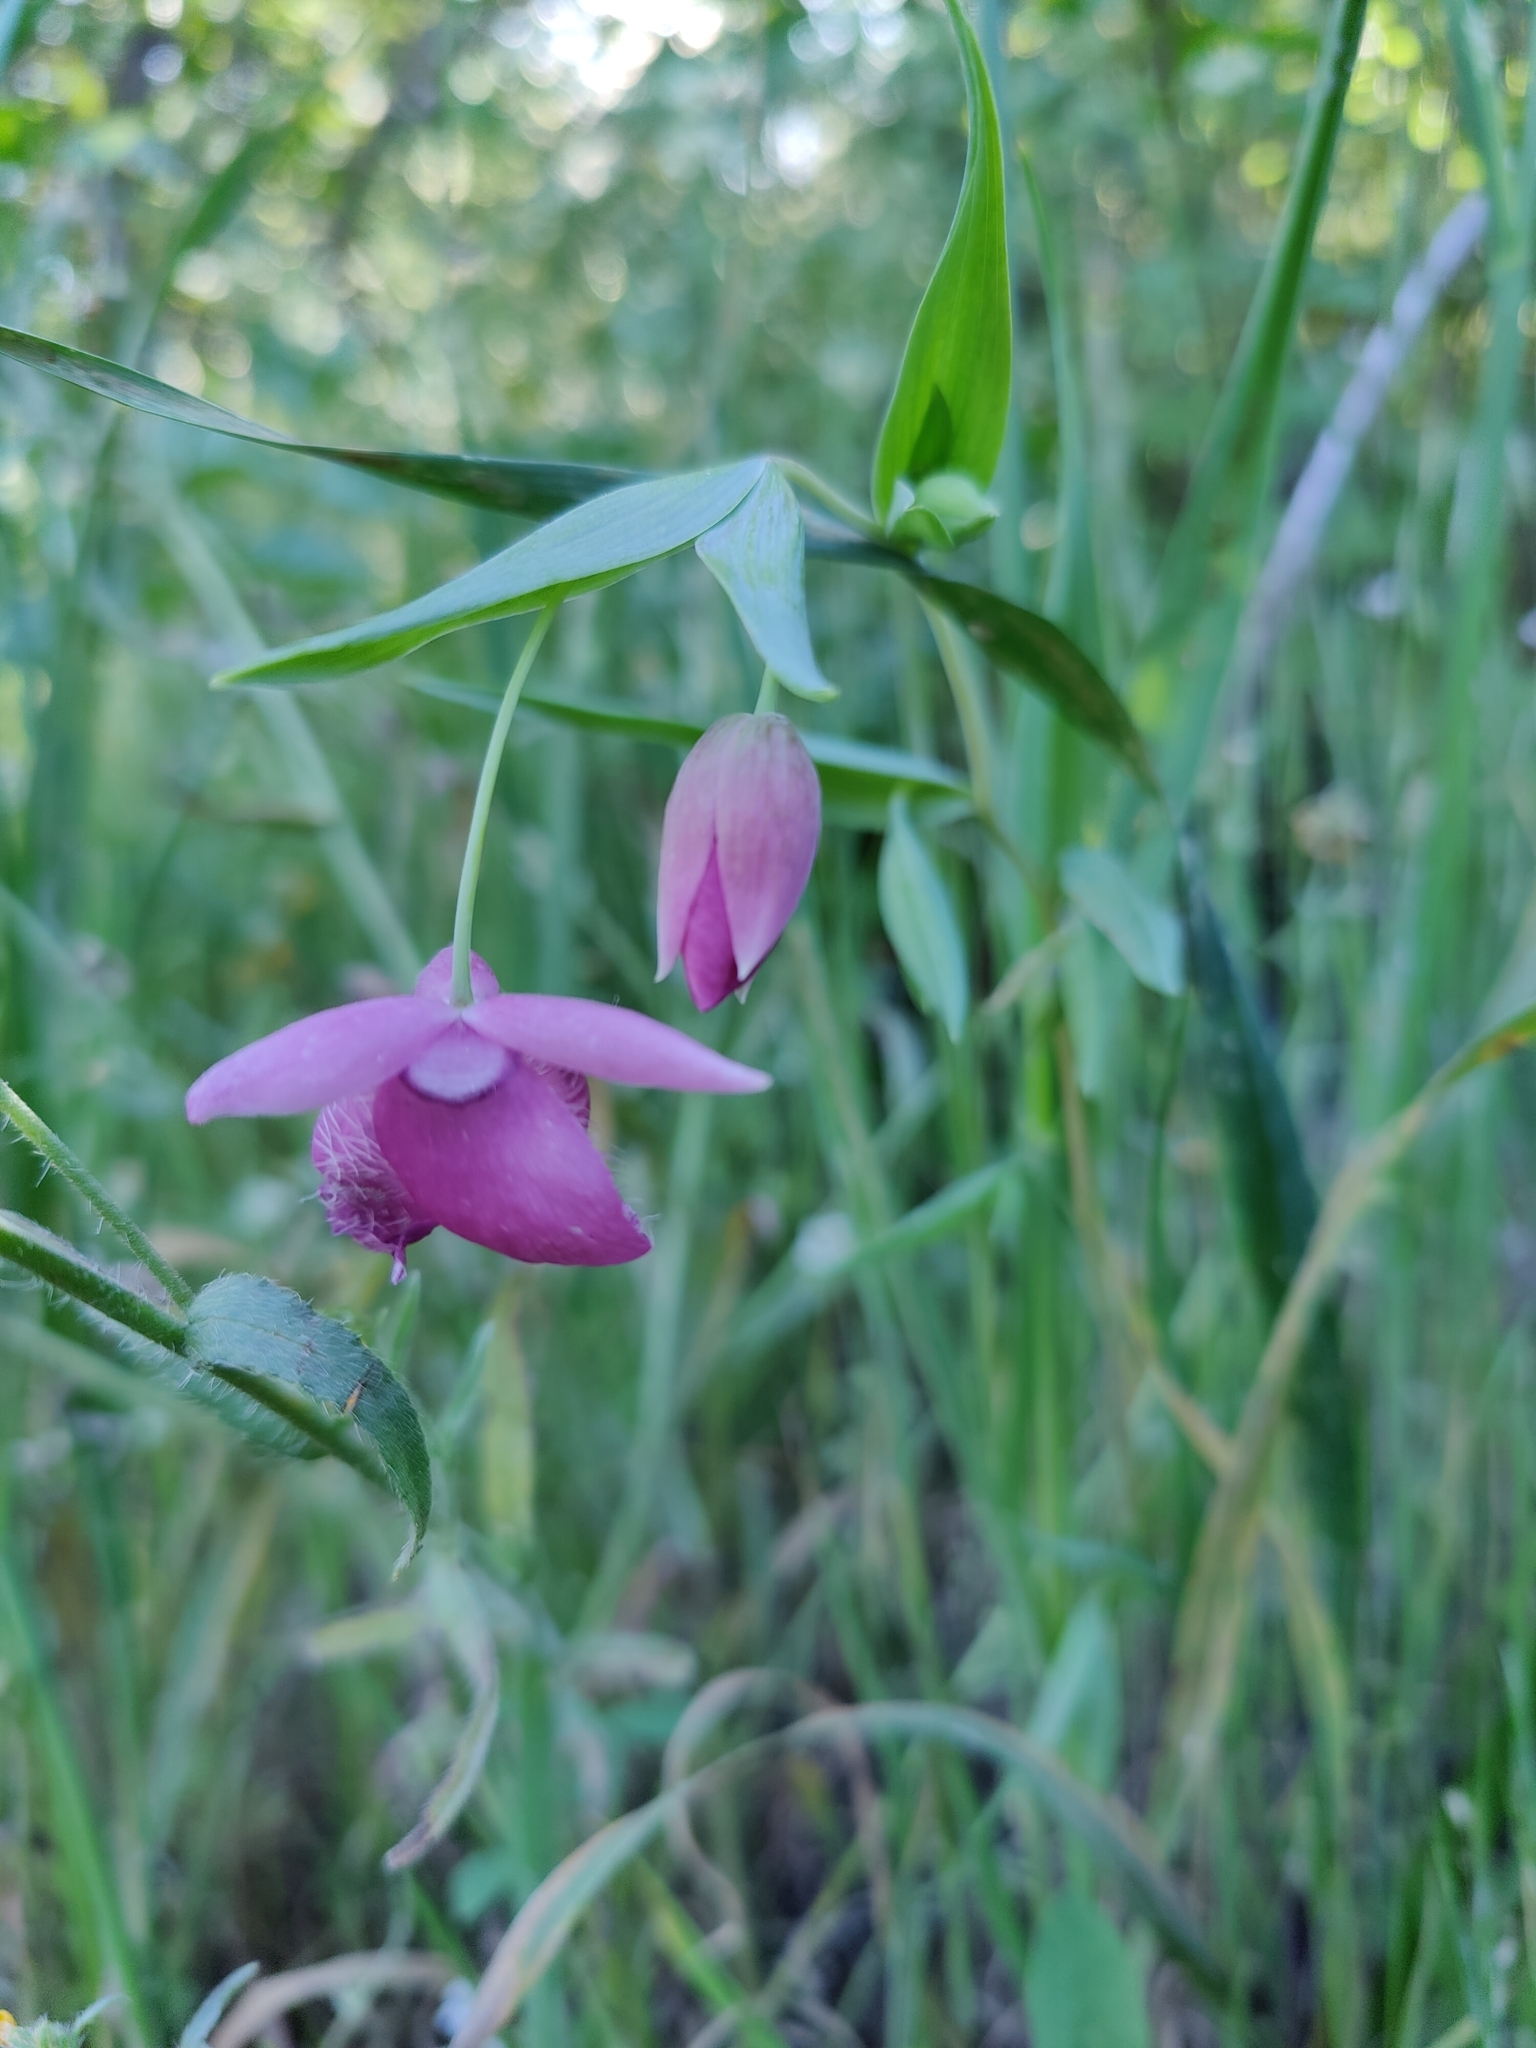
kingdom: Plantae
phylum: Tracheophyta
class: Liliopsida
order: Liliales
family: Liliaceae
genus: Calochortus
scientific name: Calochortus amoenus
